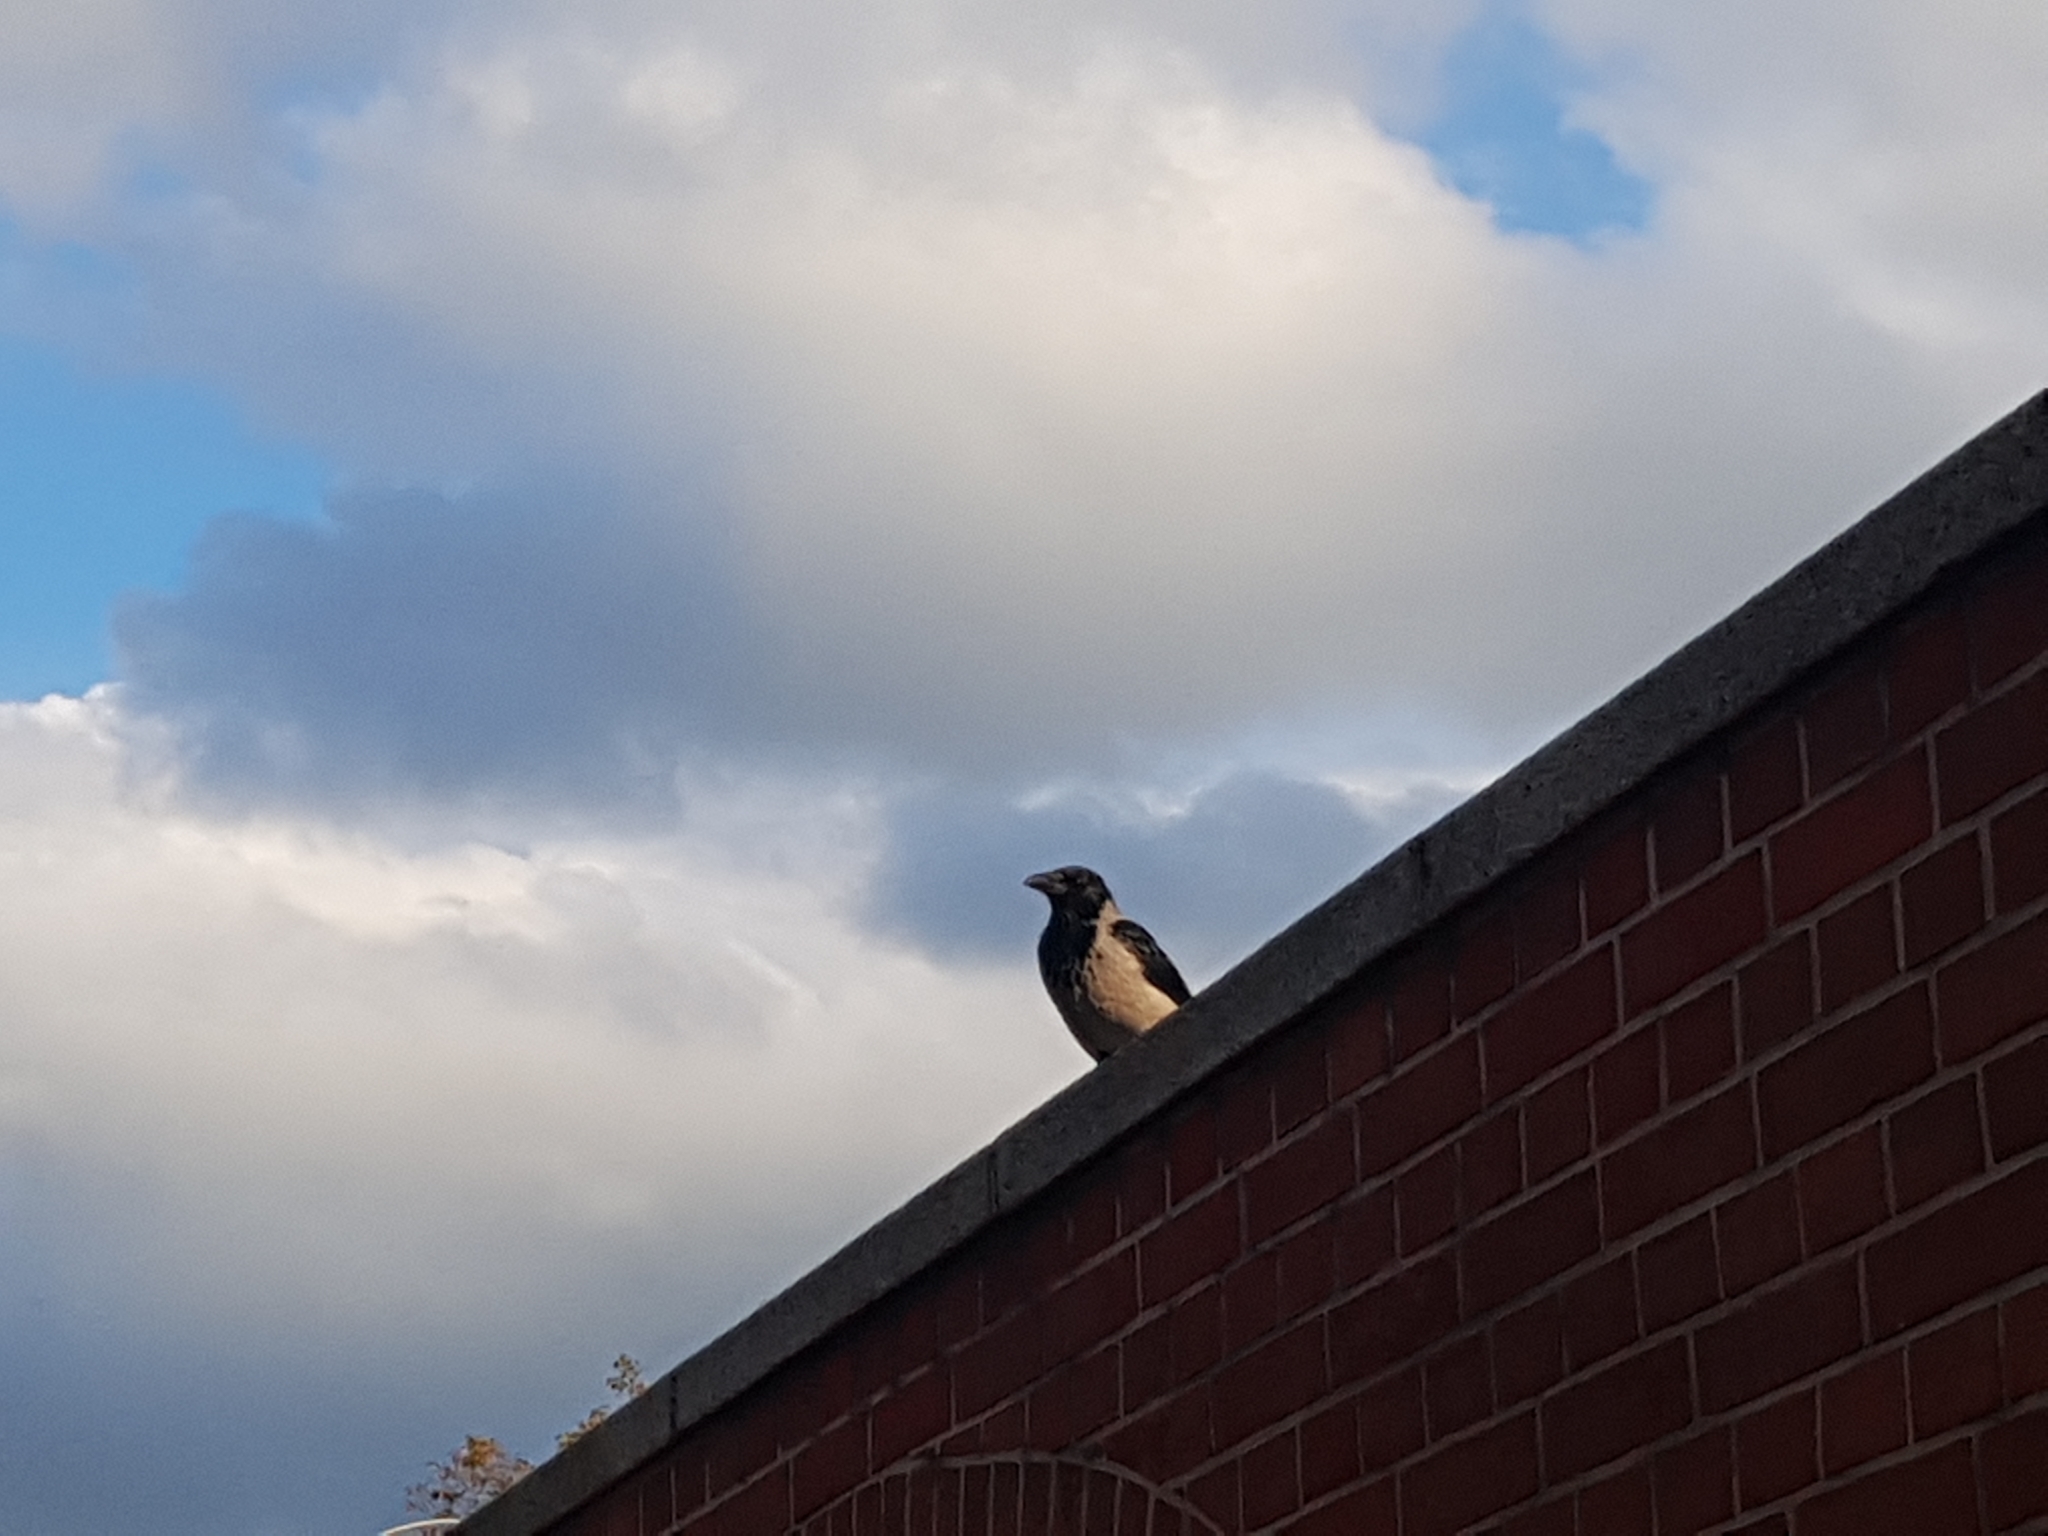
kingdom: Animalia
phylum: Chordata
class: Aves
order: Passeriformes
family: Corvidae
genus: Corvus
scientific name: Corvus cornix
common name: Hooded crow
